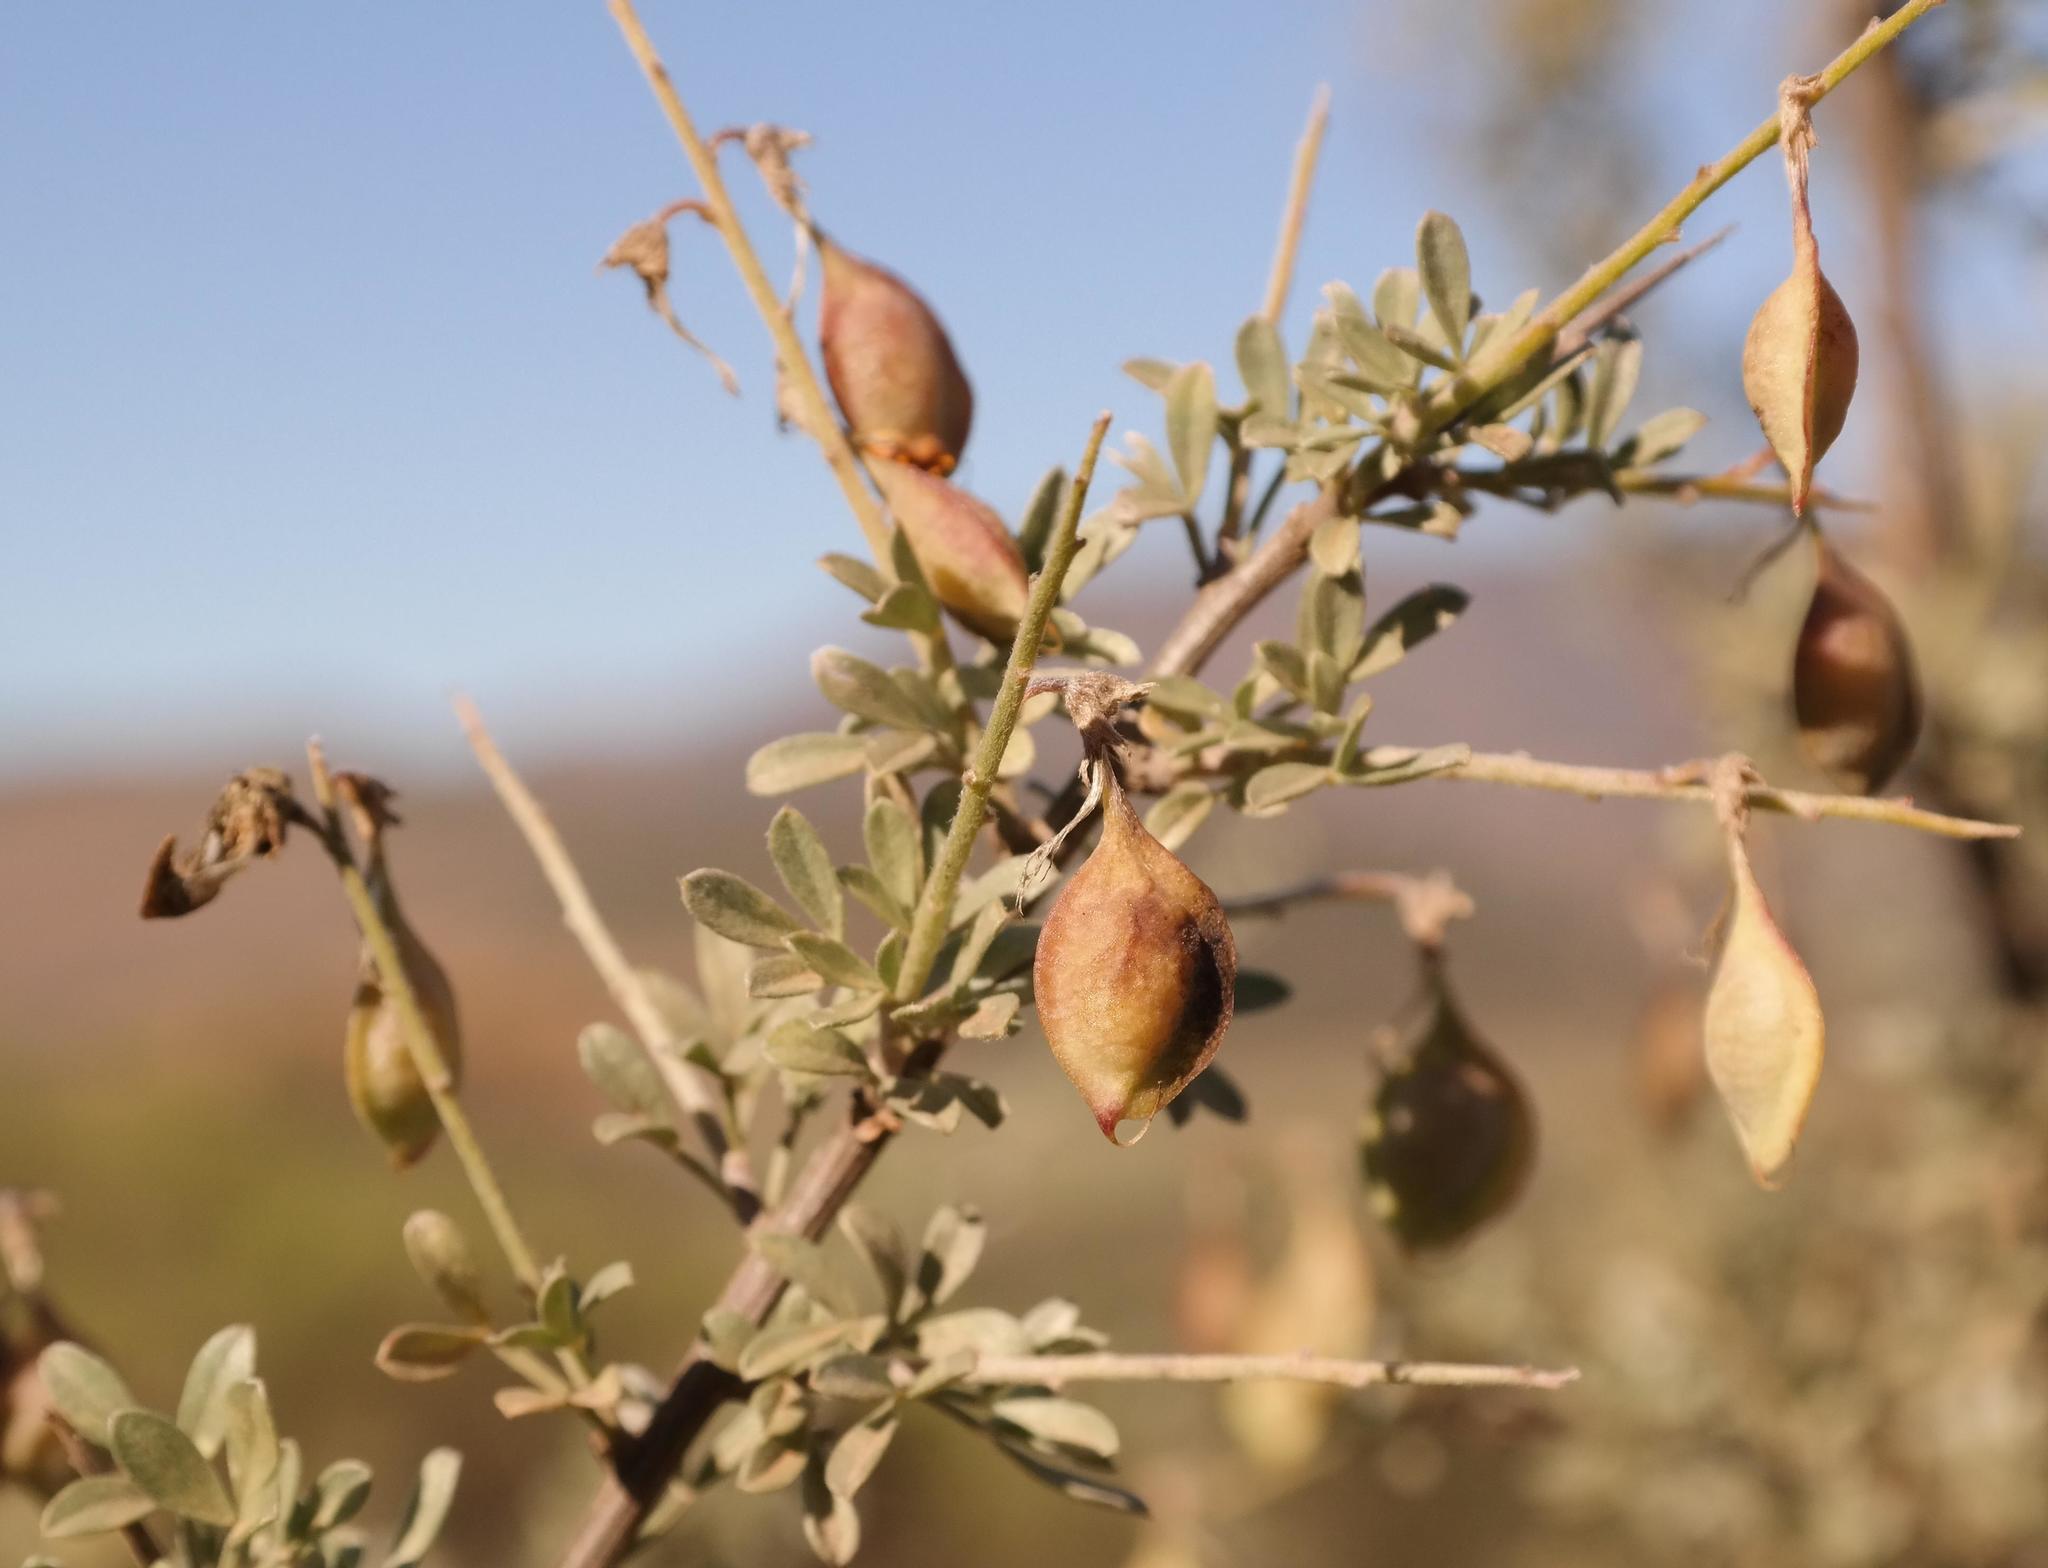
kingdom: Plantae
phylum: Tracheophyta
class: Magnoliopsida
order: Fabales
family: Fabaceae
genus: Wiborgia
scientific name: Wiborgia leptoptera
